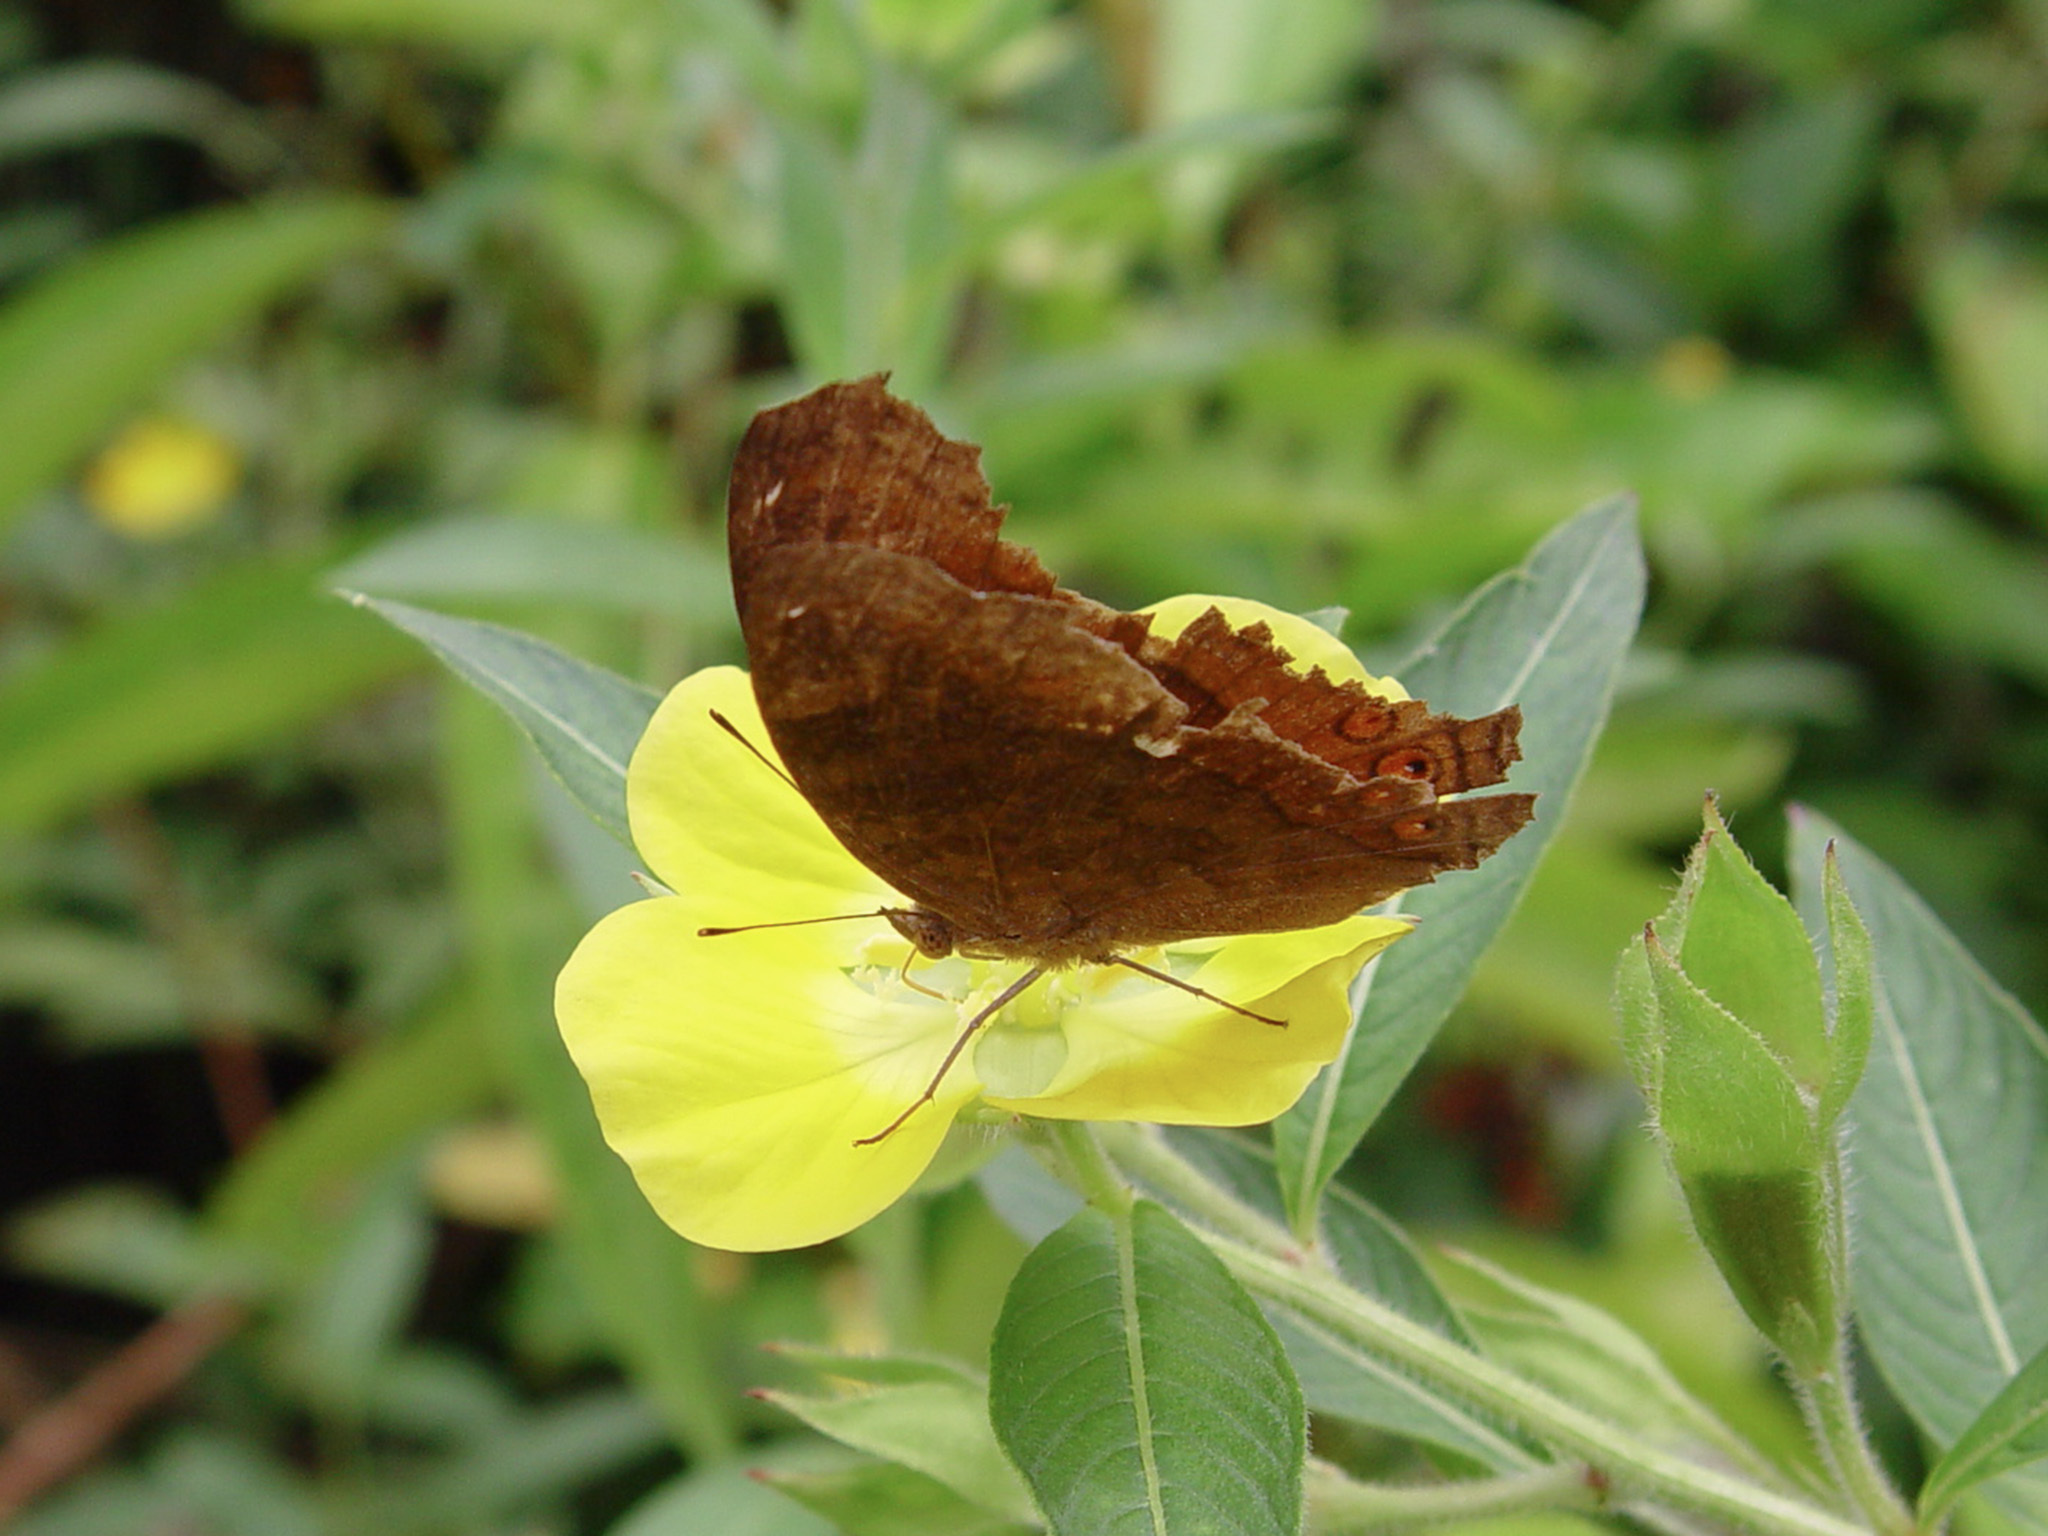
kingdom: Animalia
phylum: Arthropoda
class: Insecta
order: Lepidoptera
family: Nymphalidae
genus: Junonia
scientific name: Junonia hedonia
